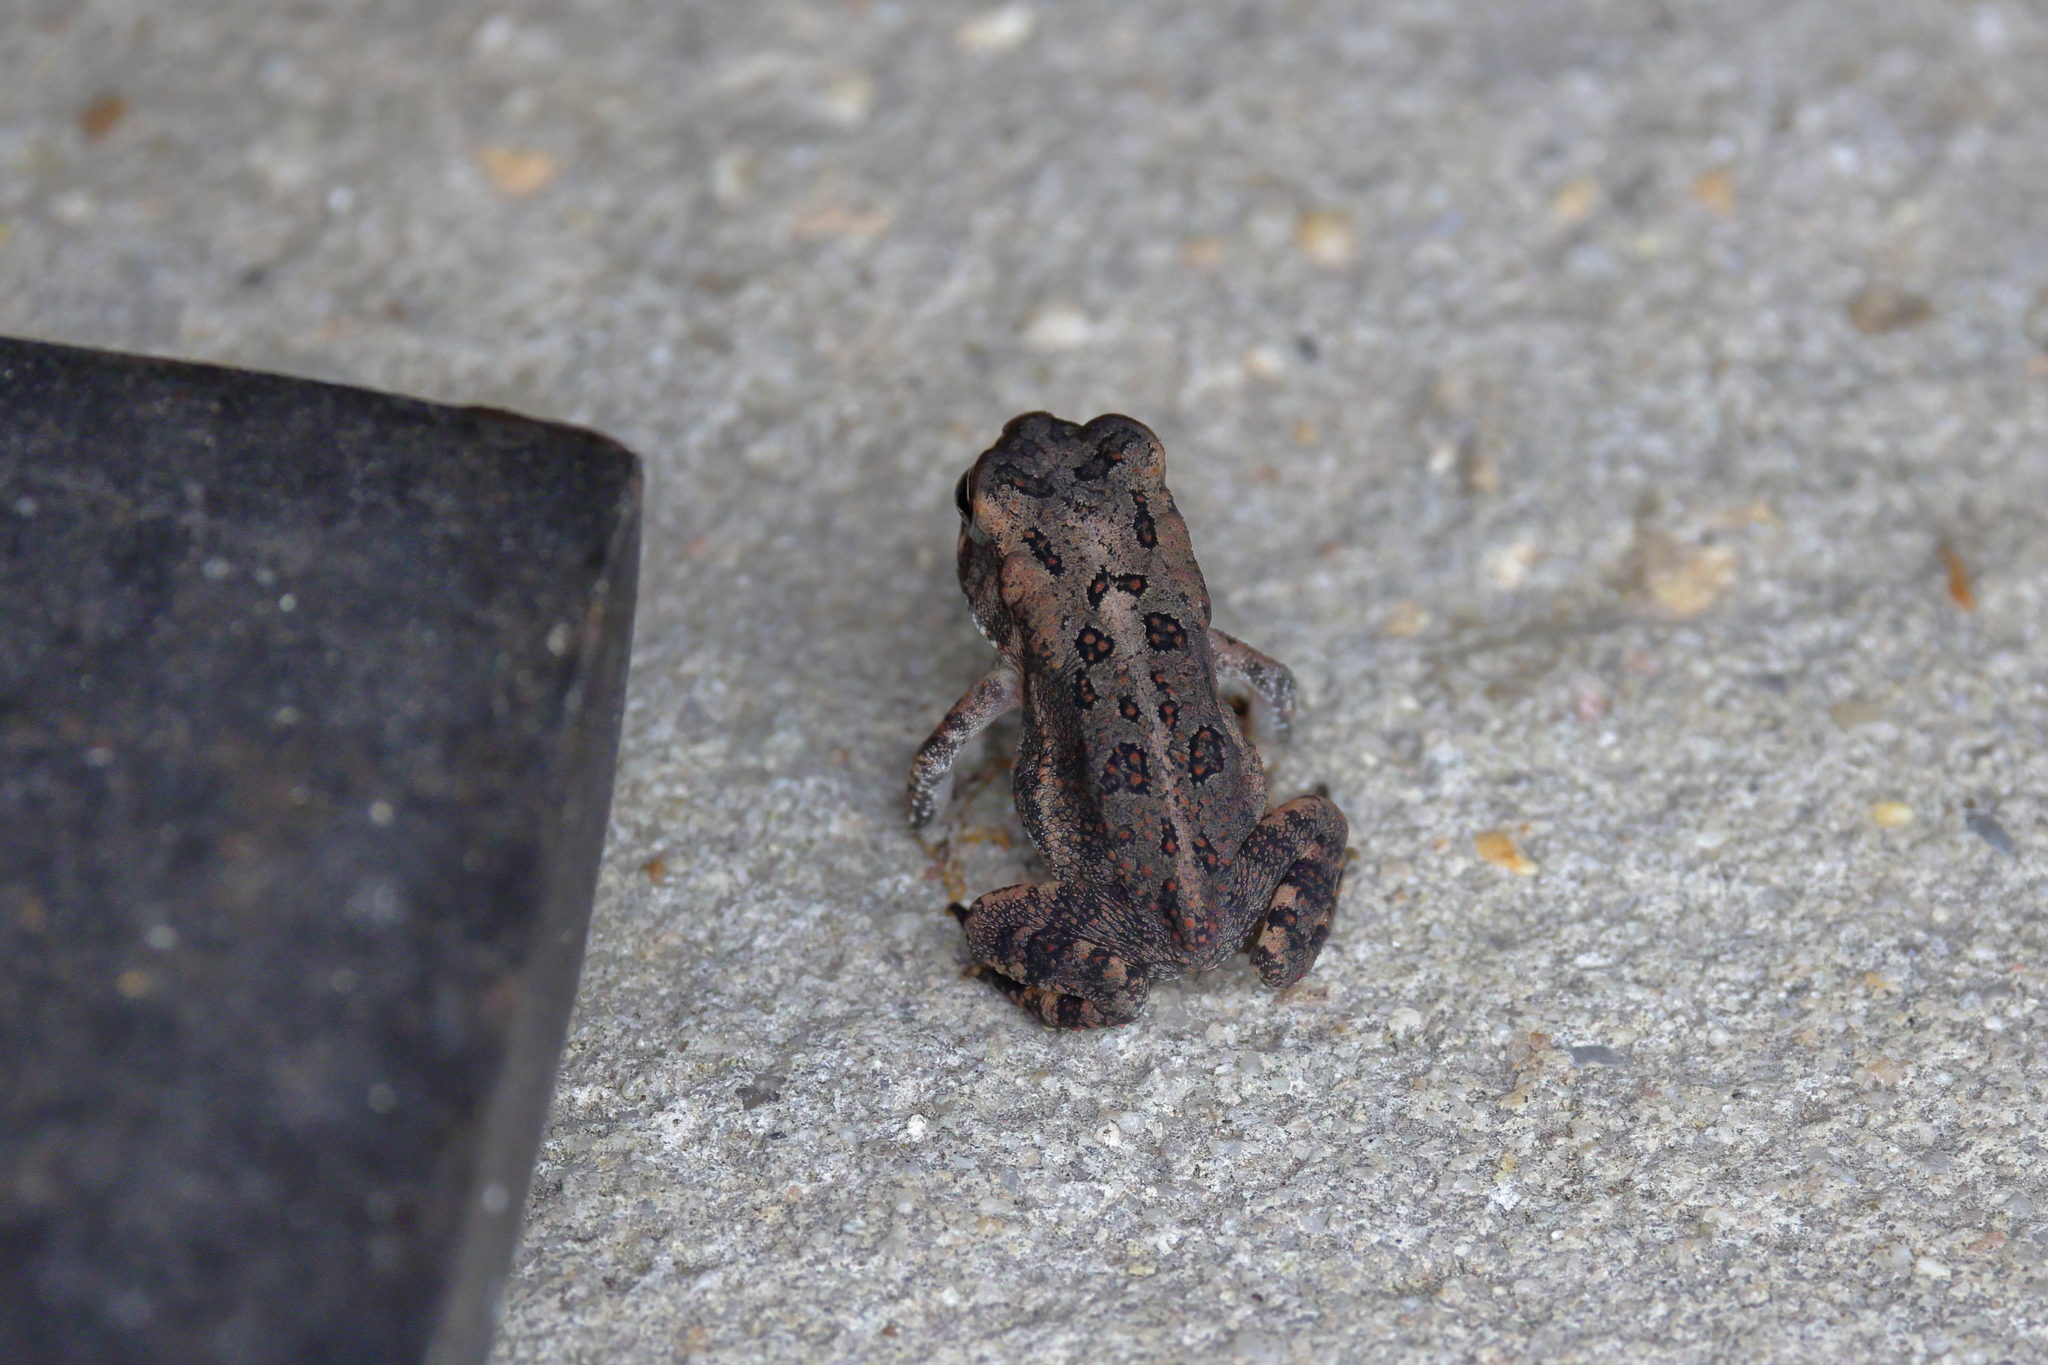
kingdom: Animalia
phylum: Chordata
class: Amphibia
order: Anura
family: Bufonidae
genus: Incilius
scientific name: Incilius nebulifer
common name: Gulf coast toad
